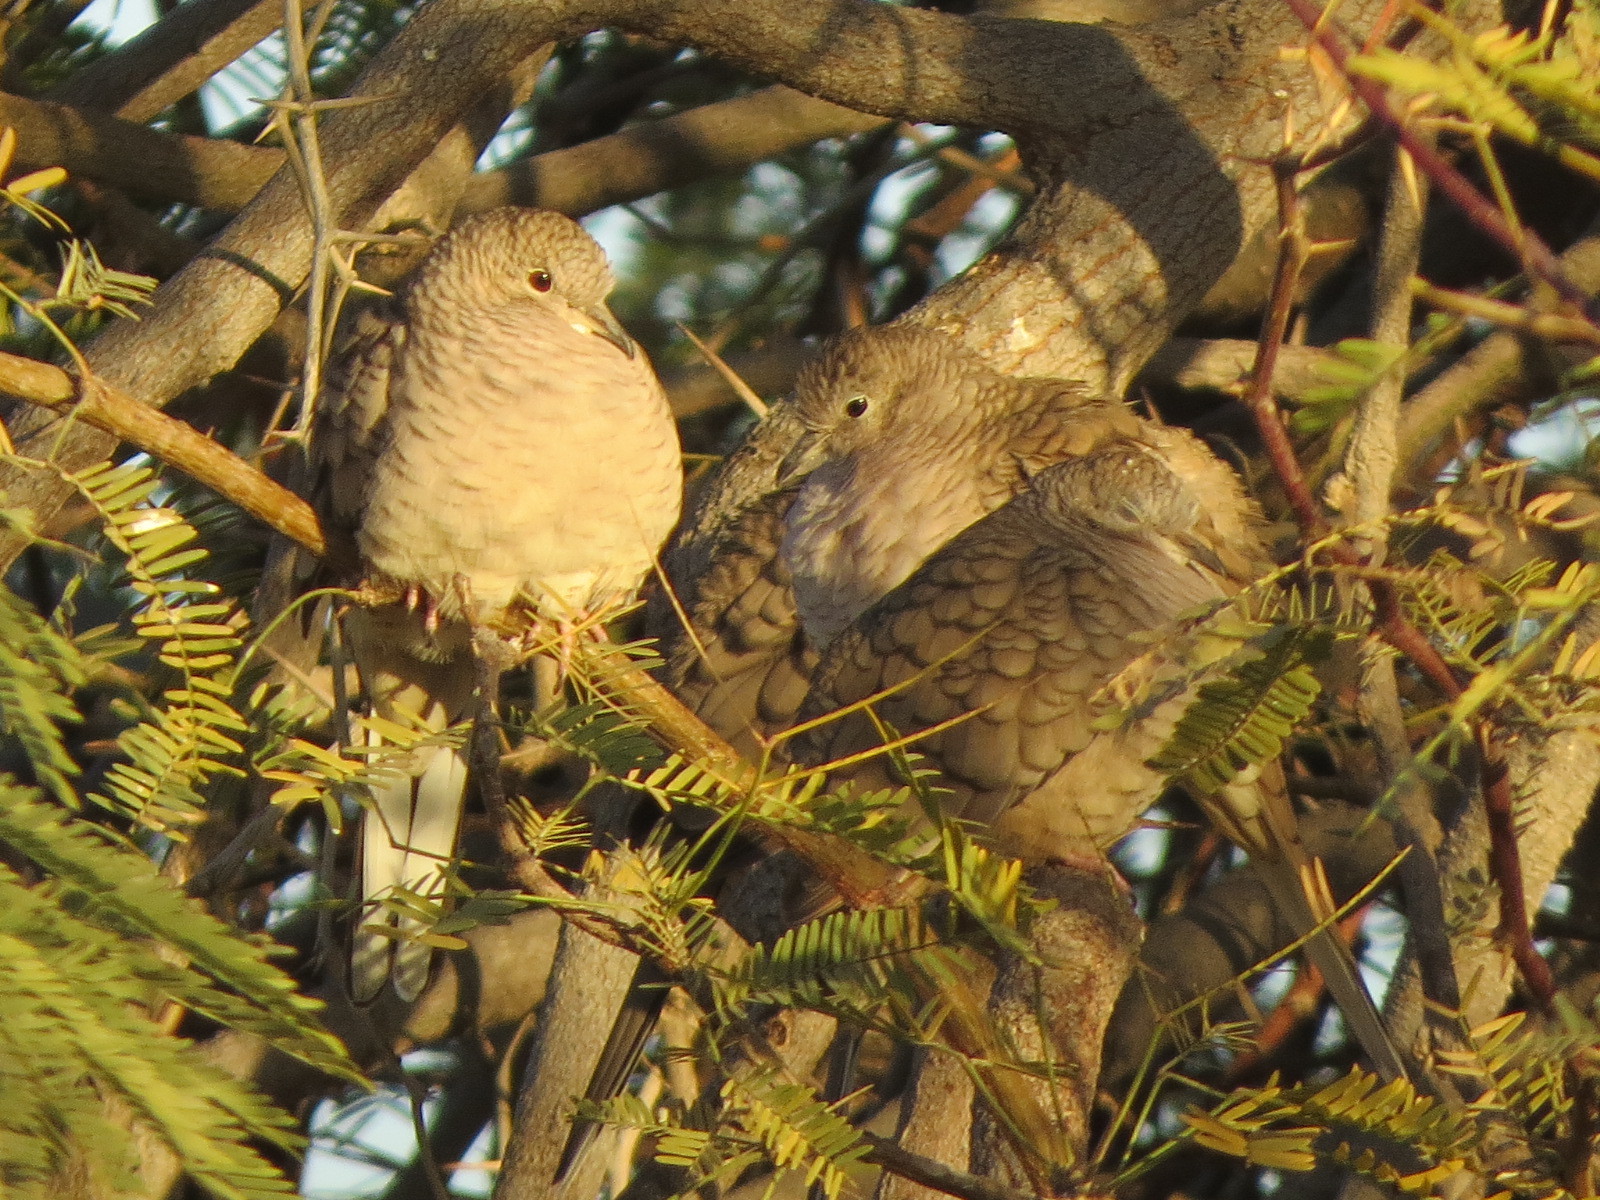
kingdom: Animalia
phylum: Chordata
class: Aves
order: Columbiformes
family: Columbidae
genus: Columbina
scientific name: Columbina inca
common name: Inca dove
